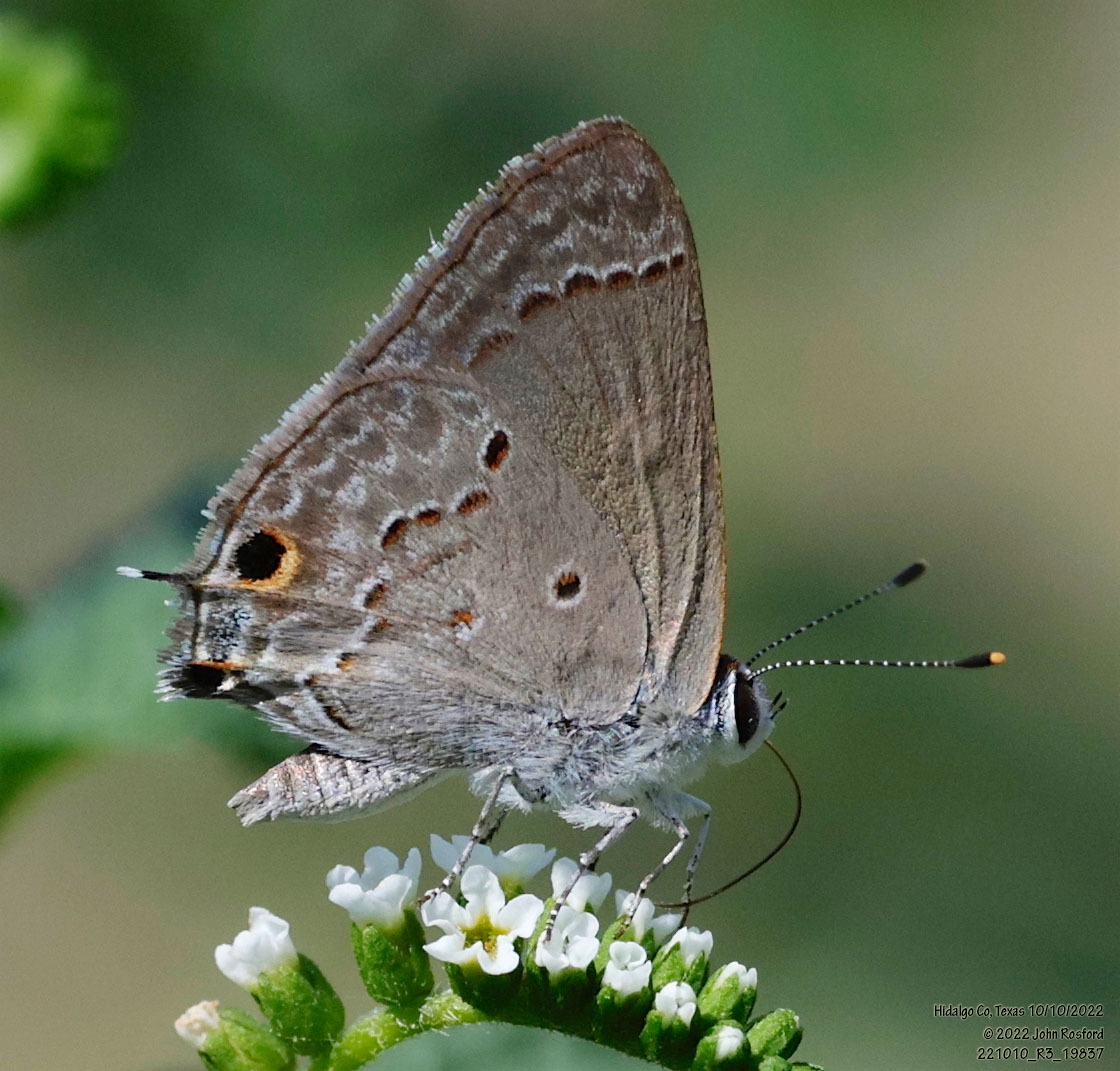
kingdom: Animalia
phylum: Arthropoda
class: Insecta
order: Lepidoptera
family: Lycaenidae
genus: Callicista
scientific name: Callicista columella
